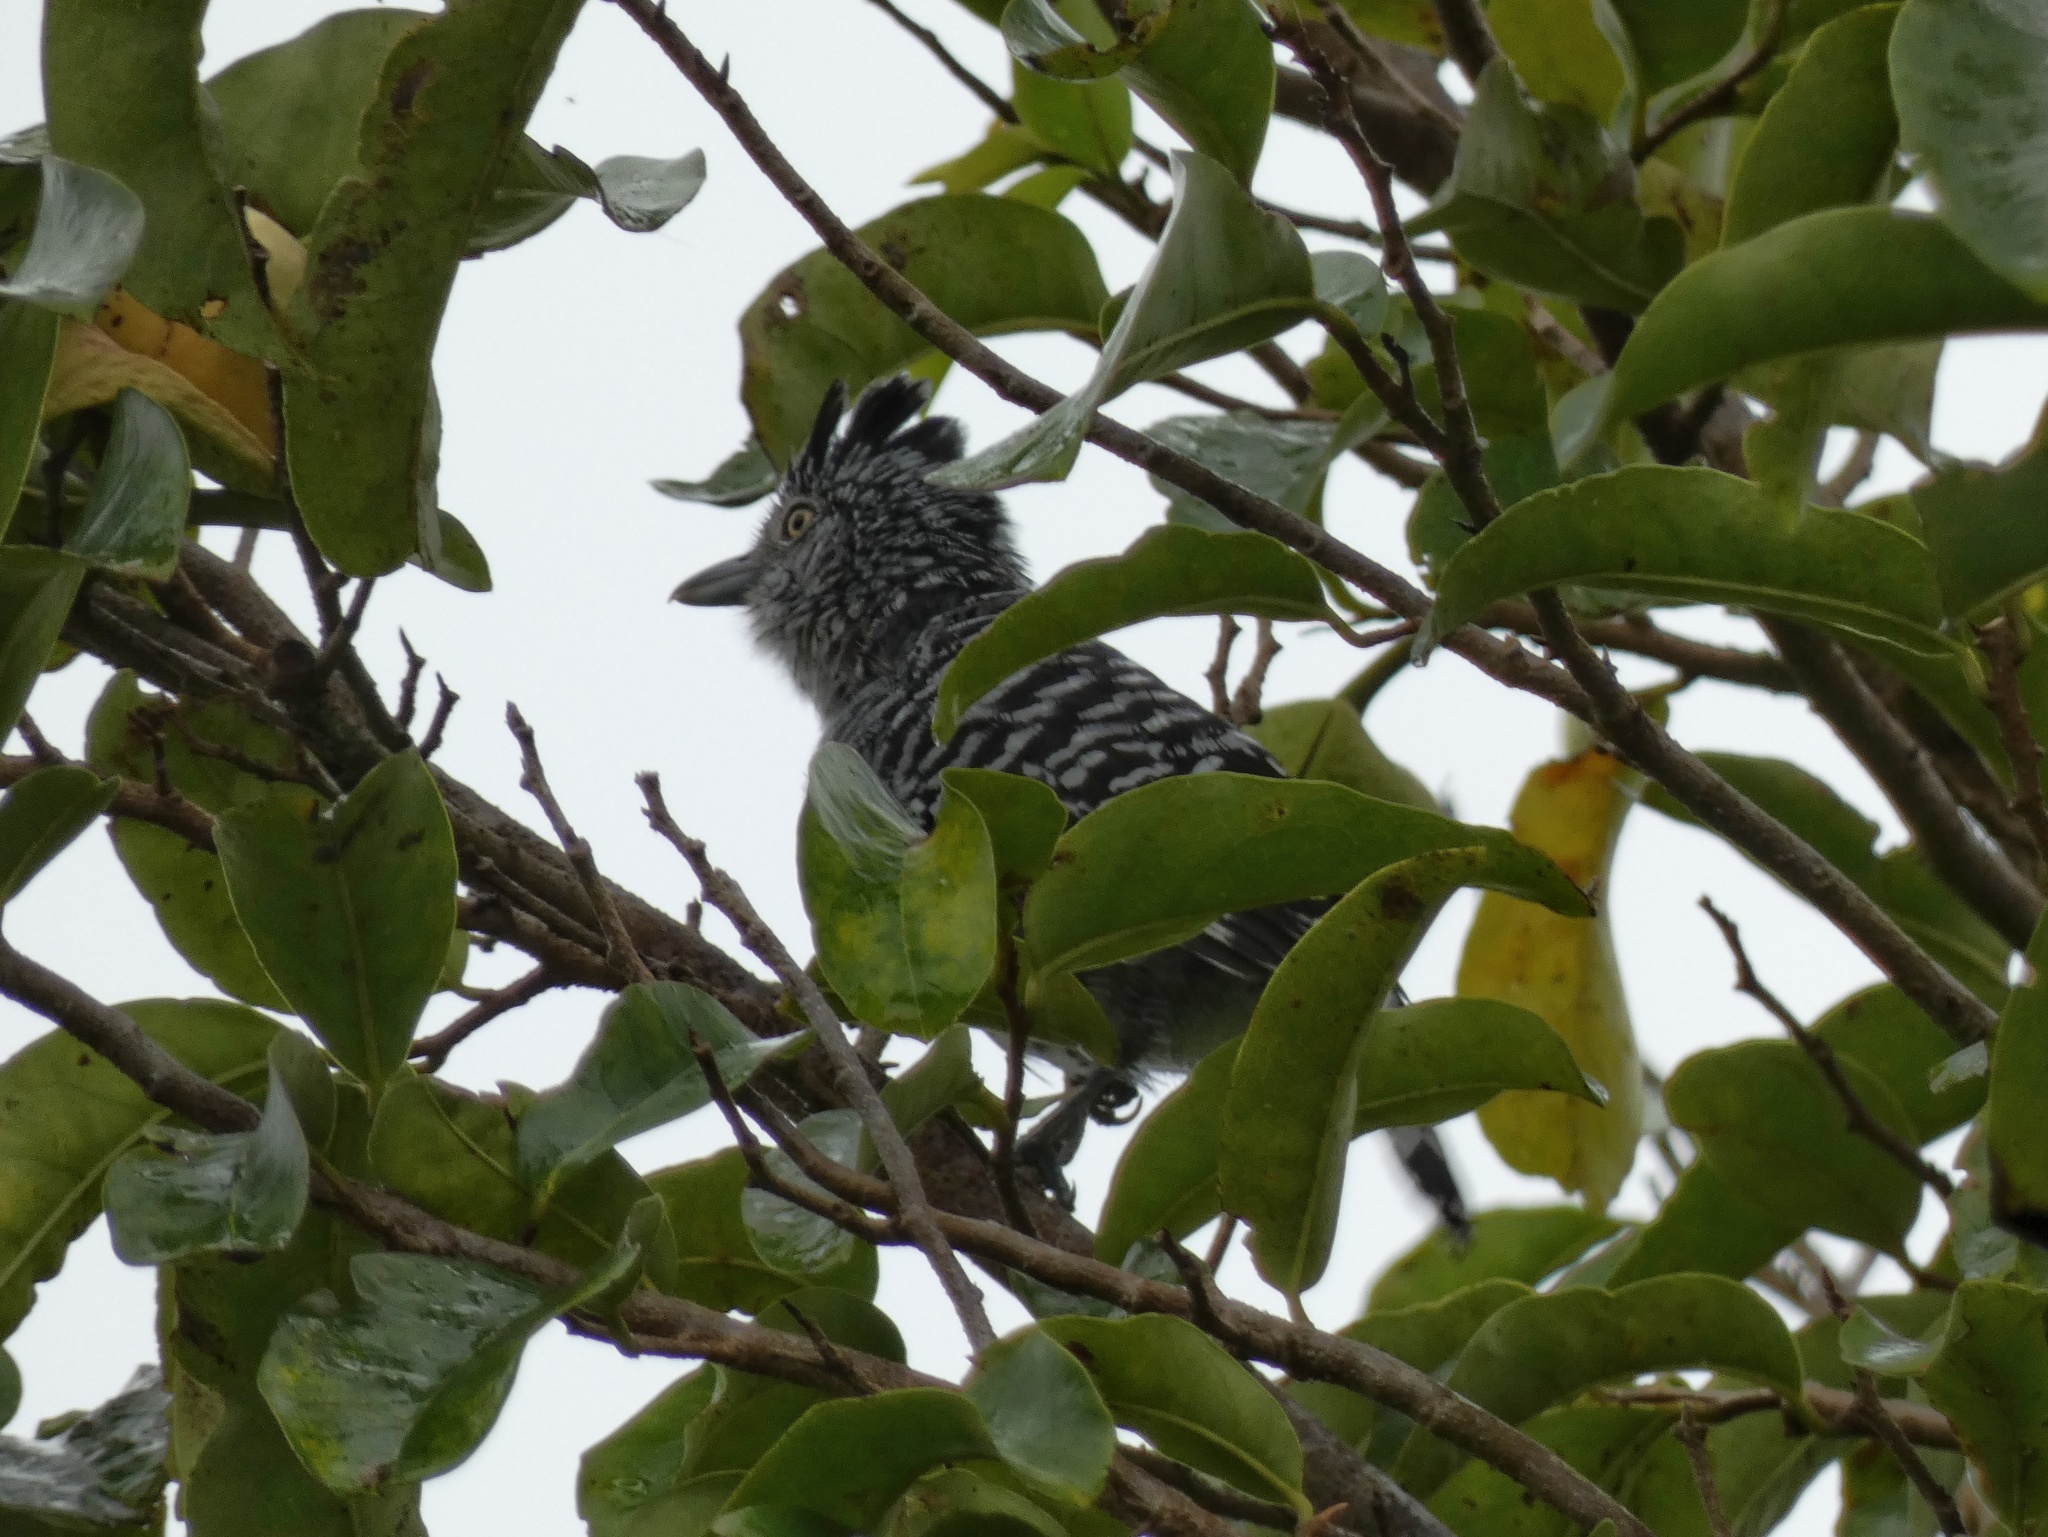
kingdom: Animalia
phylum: Chordata
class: Aves
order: Passeriformes
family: Thamnophilidae
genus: Thamnophilus
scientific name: Thamnophilus doliatus
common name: Barred antshrike
